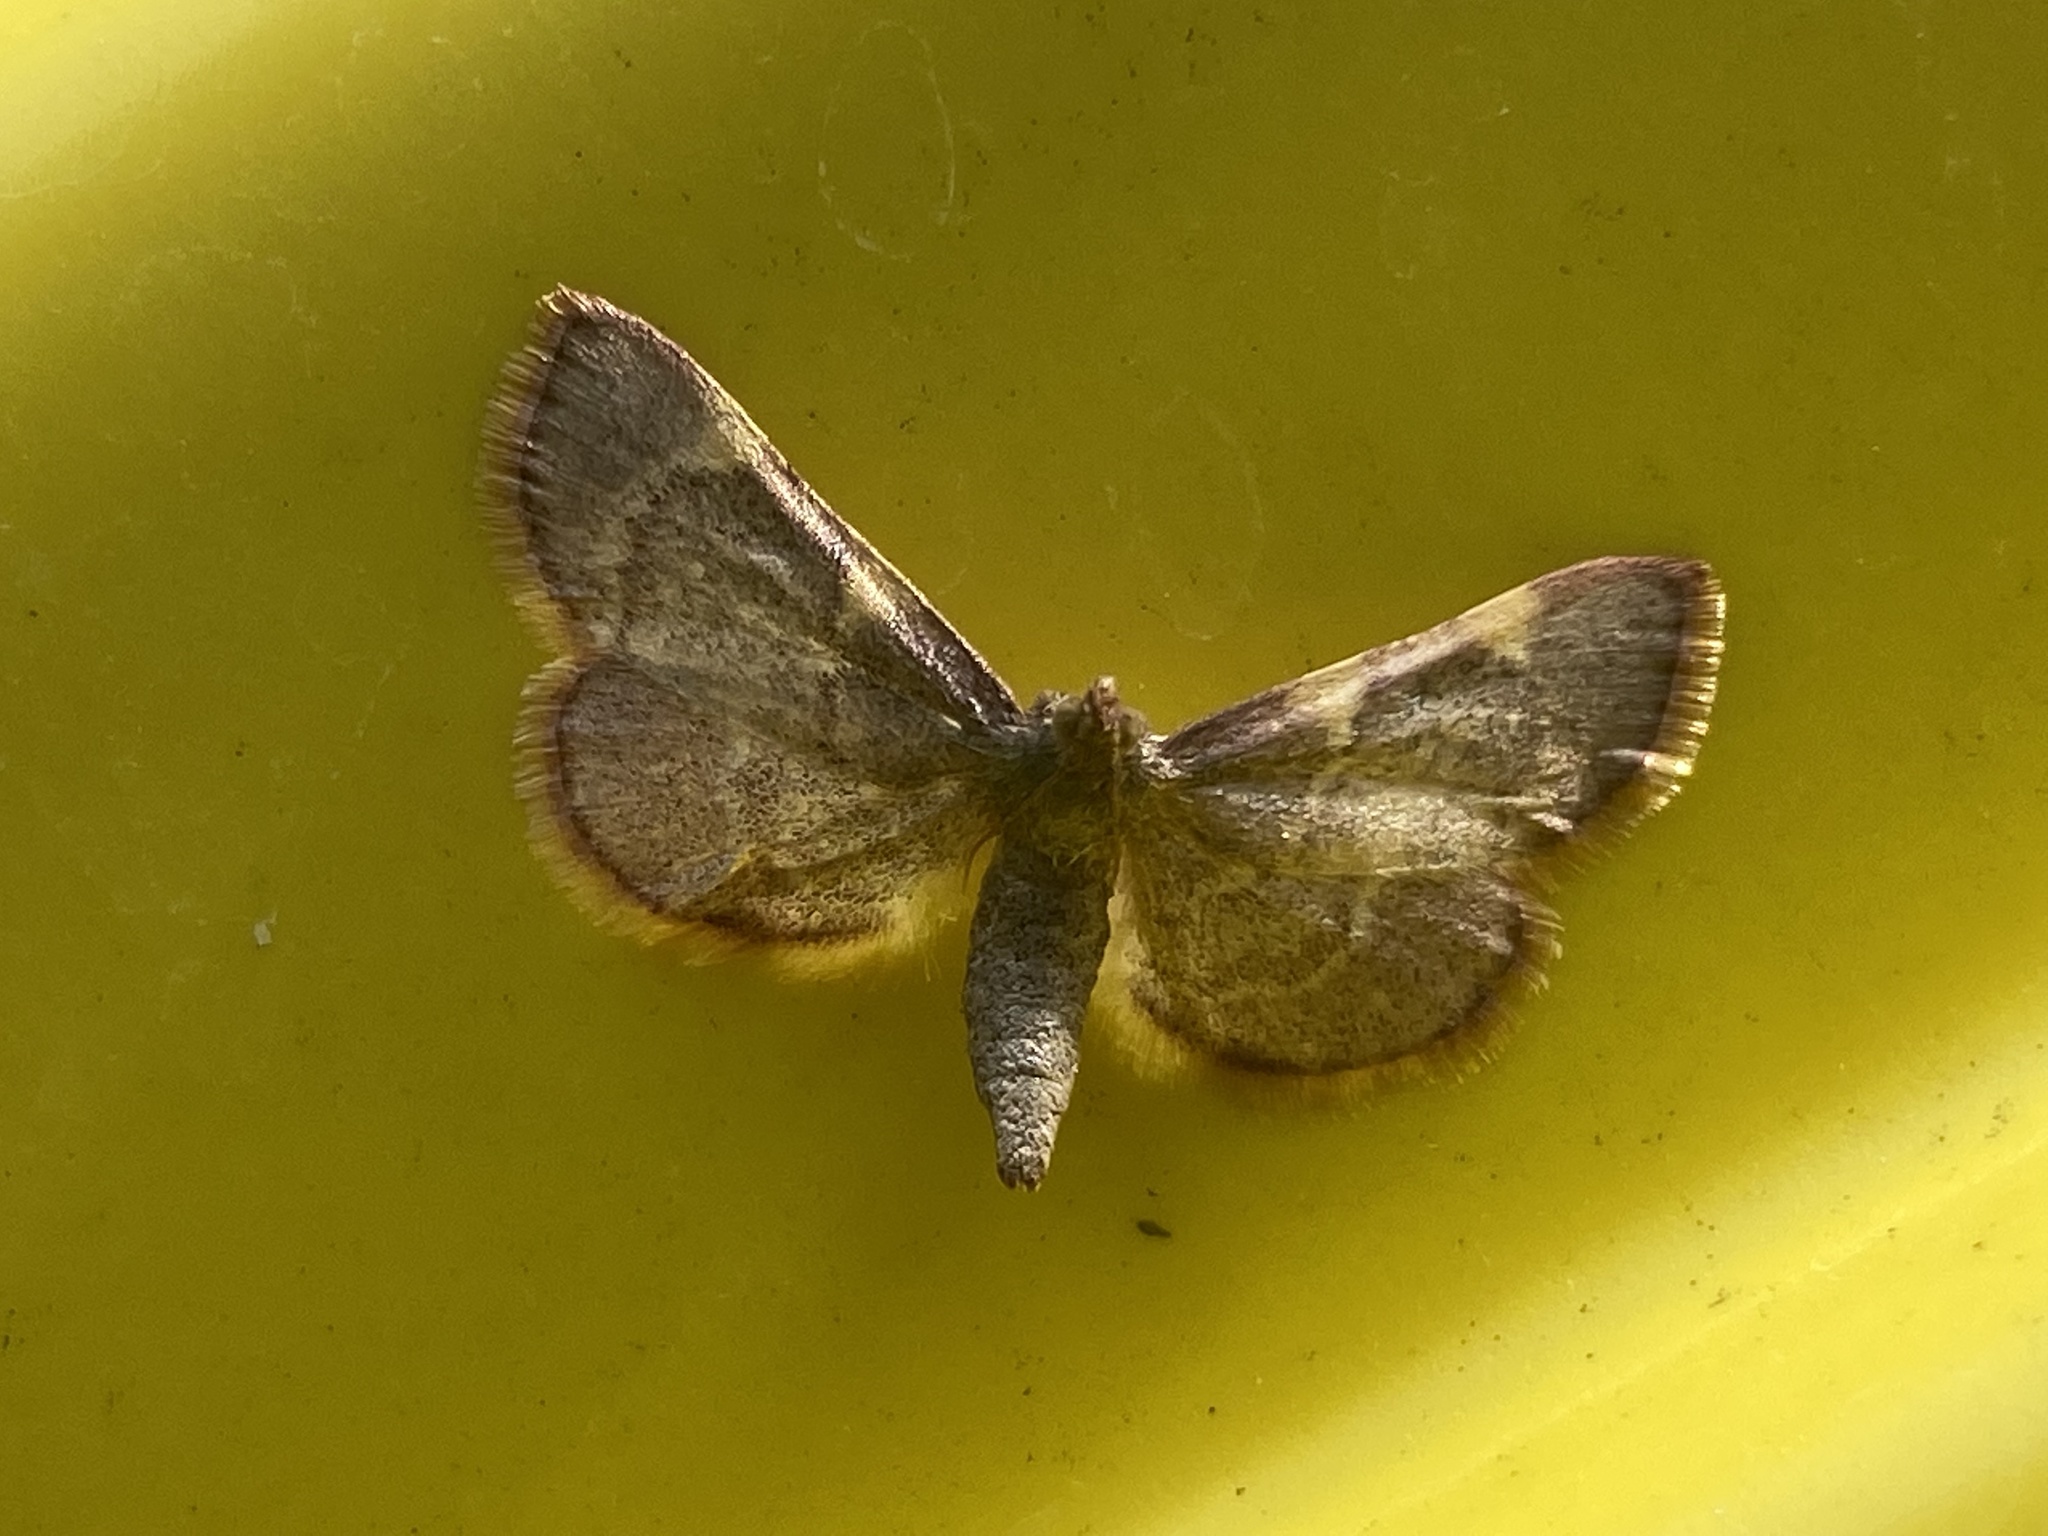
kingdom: Animalia
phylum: Arthropoda
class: Insecta
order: Lepidoptera
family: Pyralidae
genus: Hypsopygia
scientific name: Hypsopygia olinalis
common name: Yellow-fringed dolichomia moth
